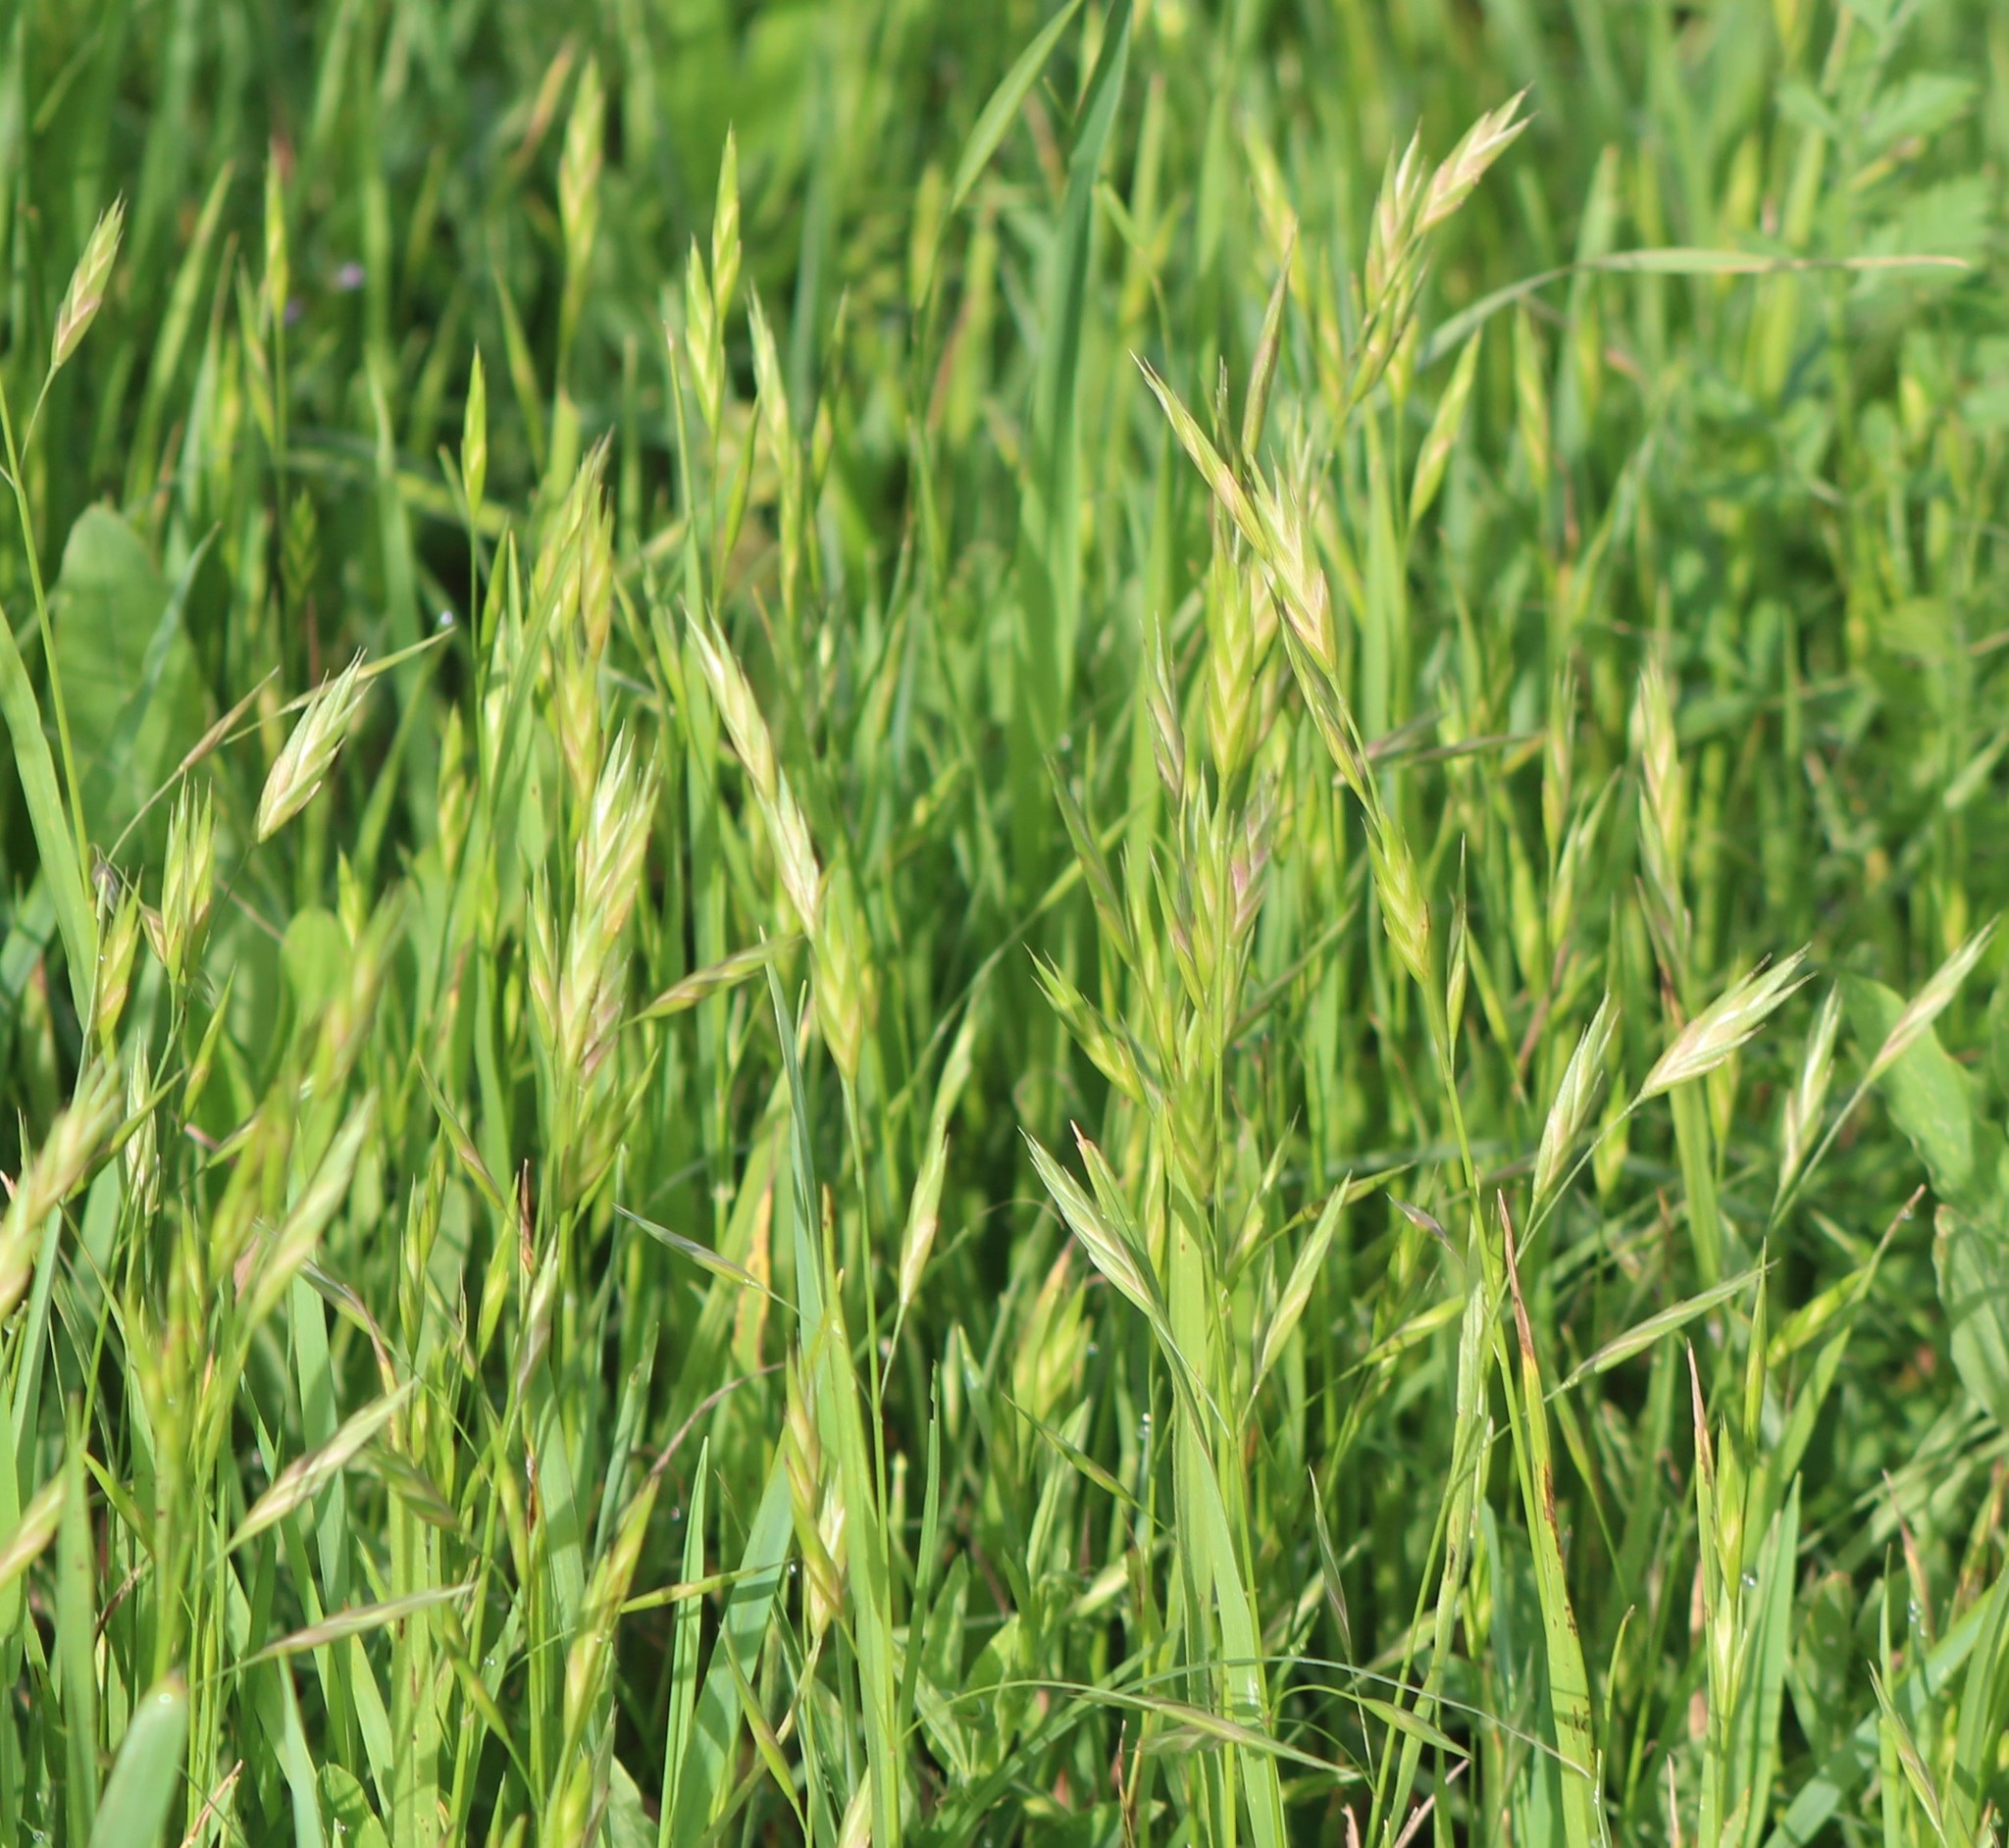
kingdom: Plantae
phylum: Tracheophyta
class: Liliopsida
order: Poales
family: Poaceae
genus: Bromus
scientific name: Bromus catharticus
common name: Rescuegrass
